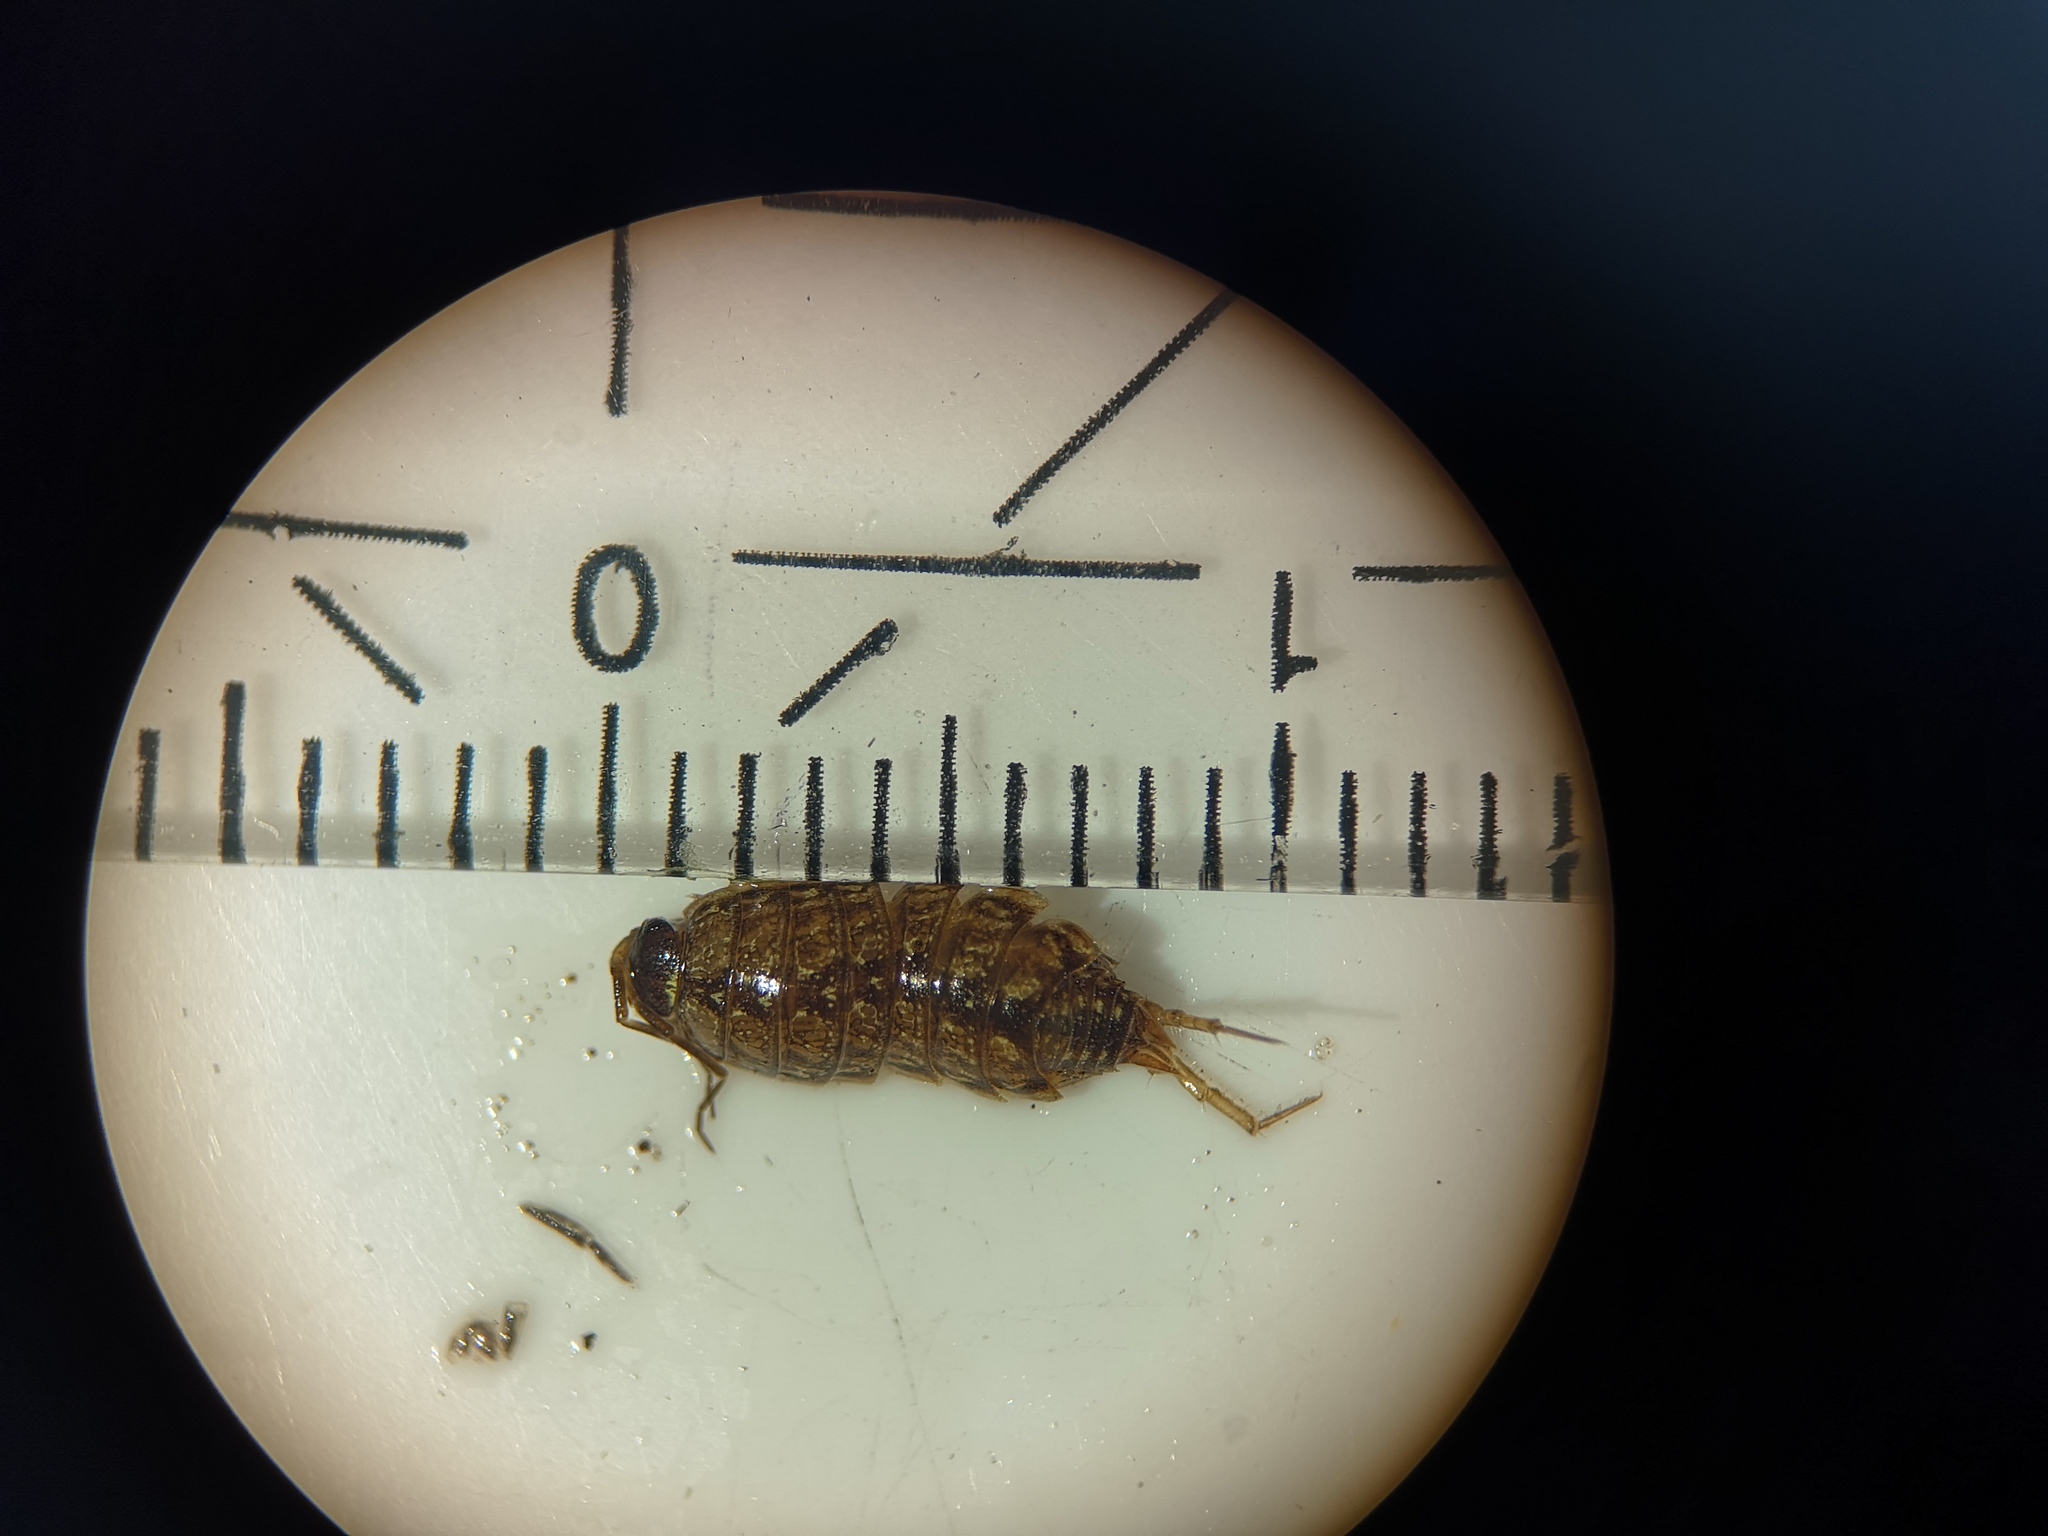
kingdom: Animalia
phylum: Arthropoda
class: Malacostraca
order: Isopoda
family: Philosciidae
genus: Philoscia
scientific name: Philoscia muscorum
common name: Common striped woodlouse
